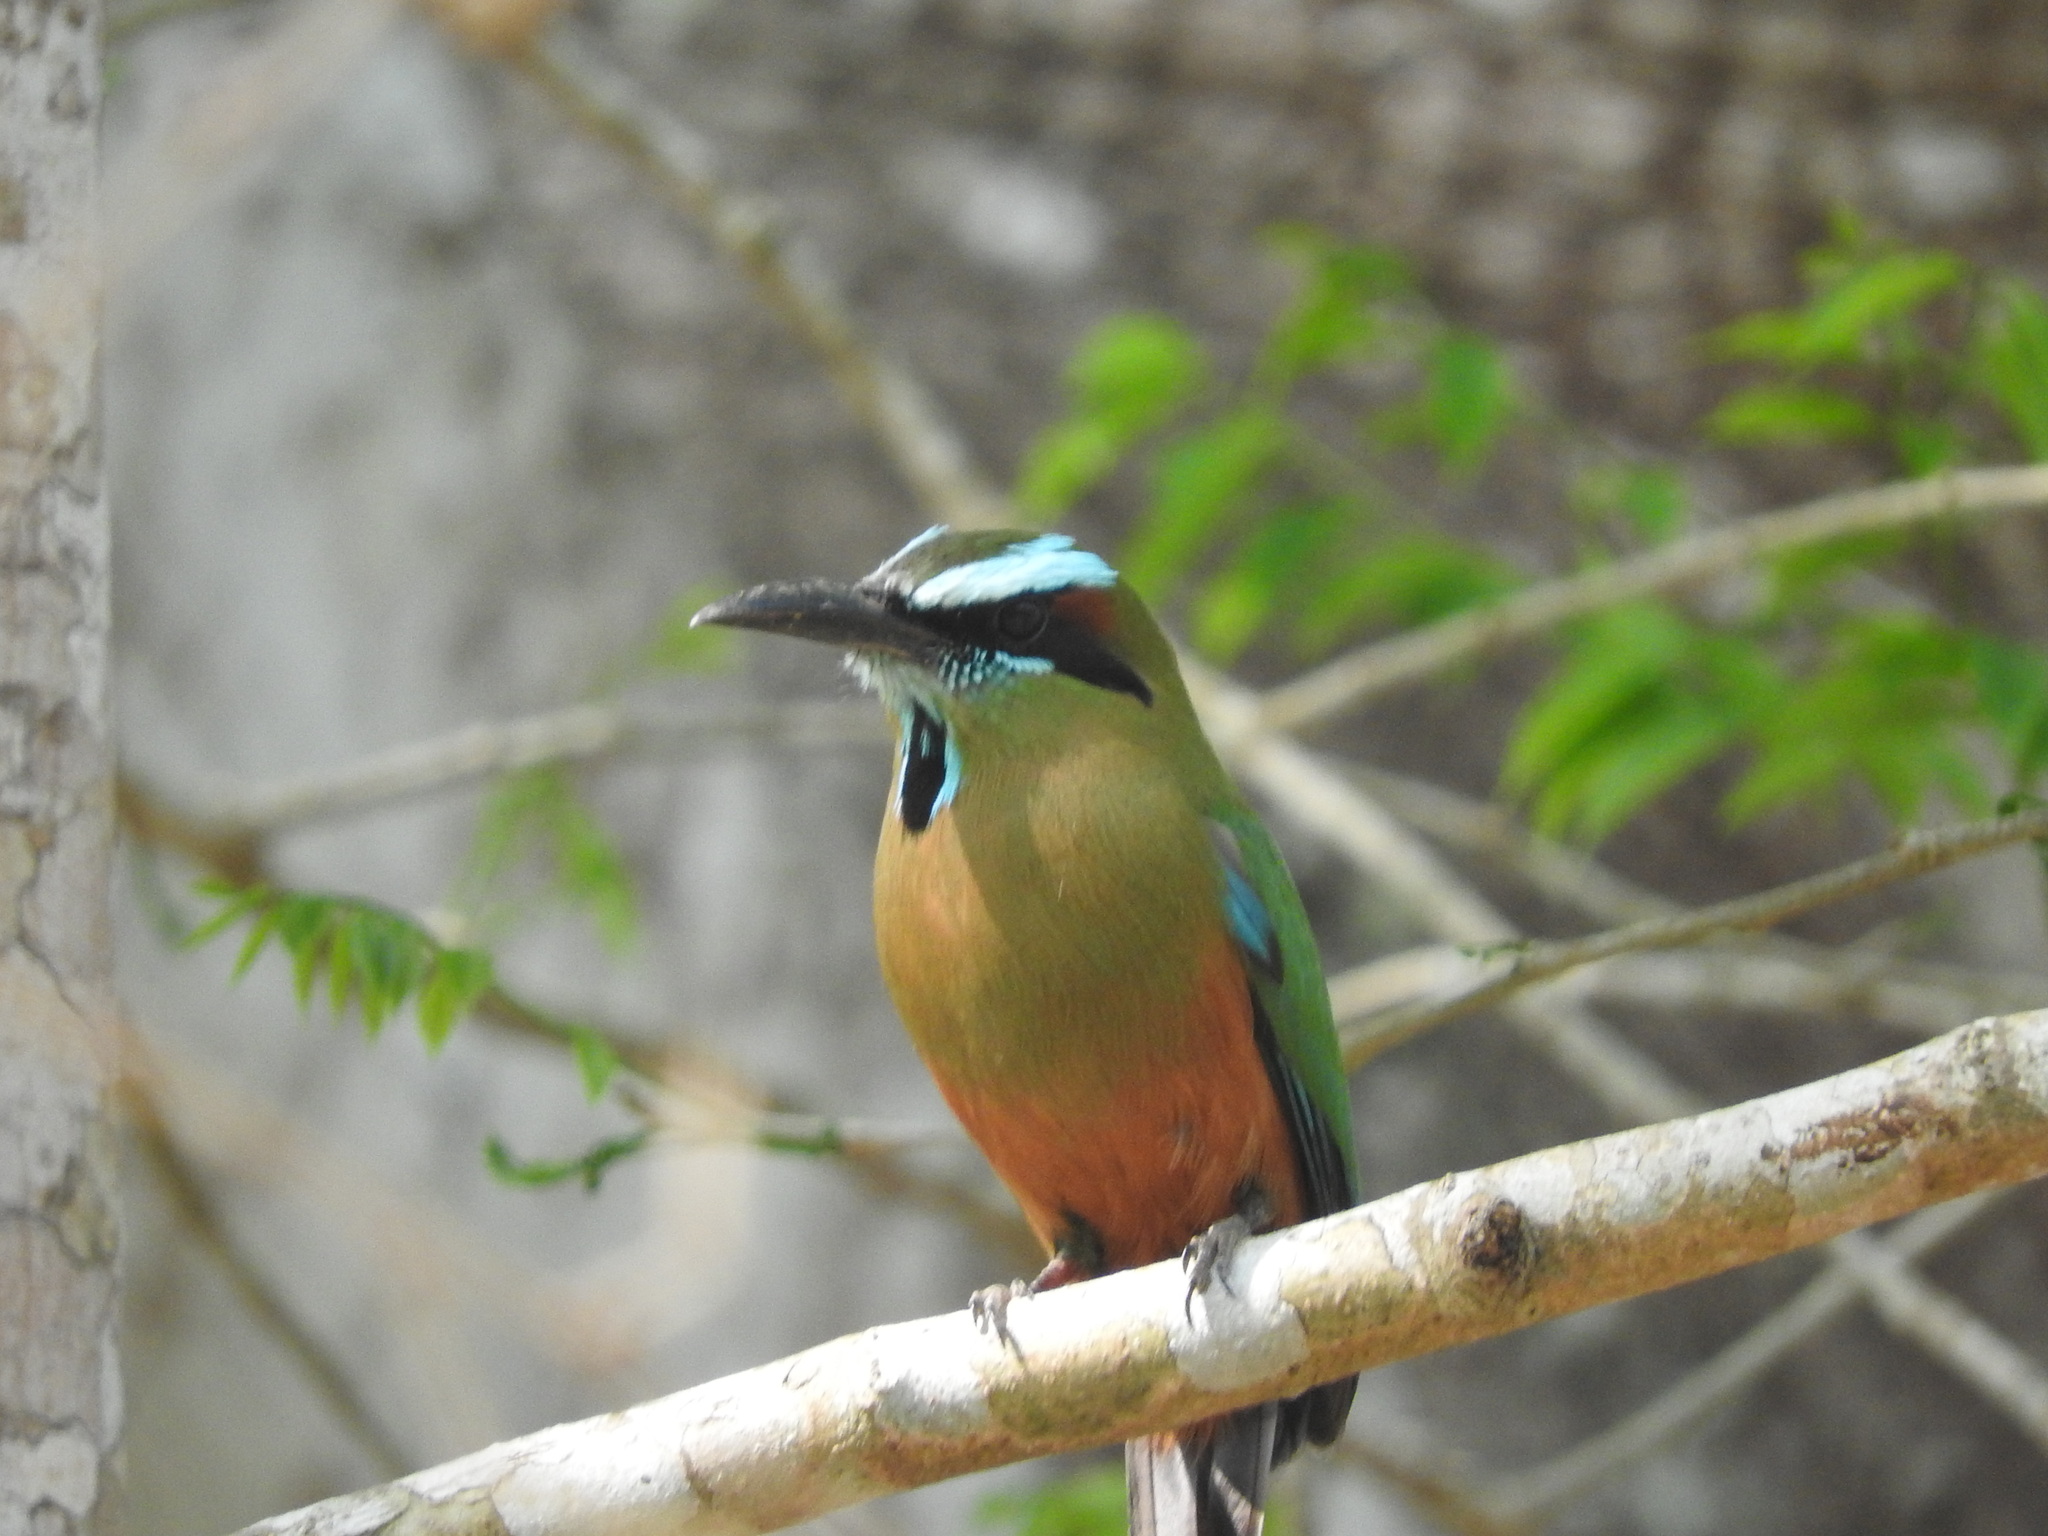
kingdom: Animalia
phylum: Chordata
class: Aves
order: Coraciiformes
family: Momotidae
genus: Eumomota
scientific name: Eumomota superciliosa
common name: Turquoise-browed motmot
